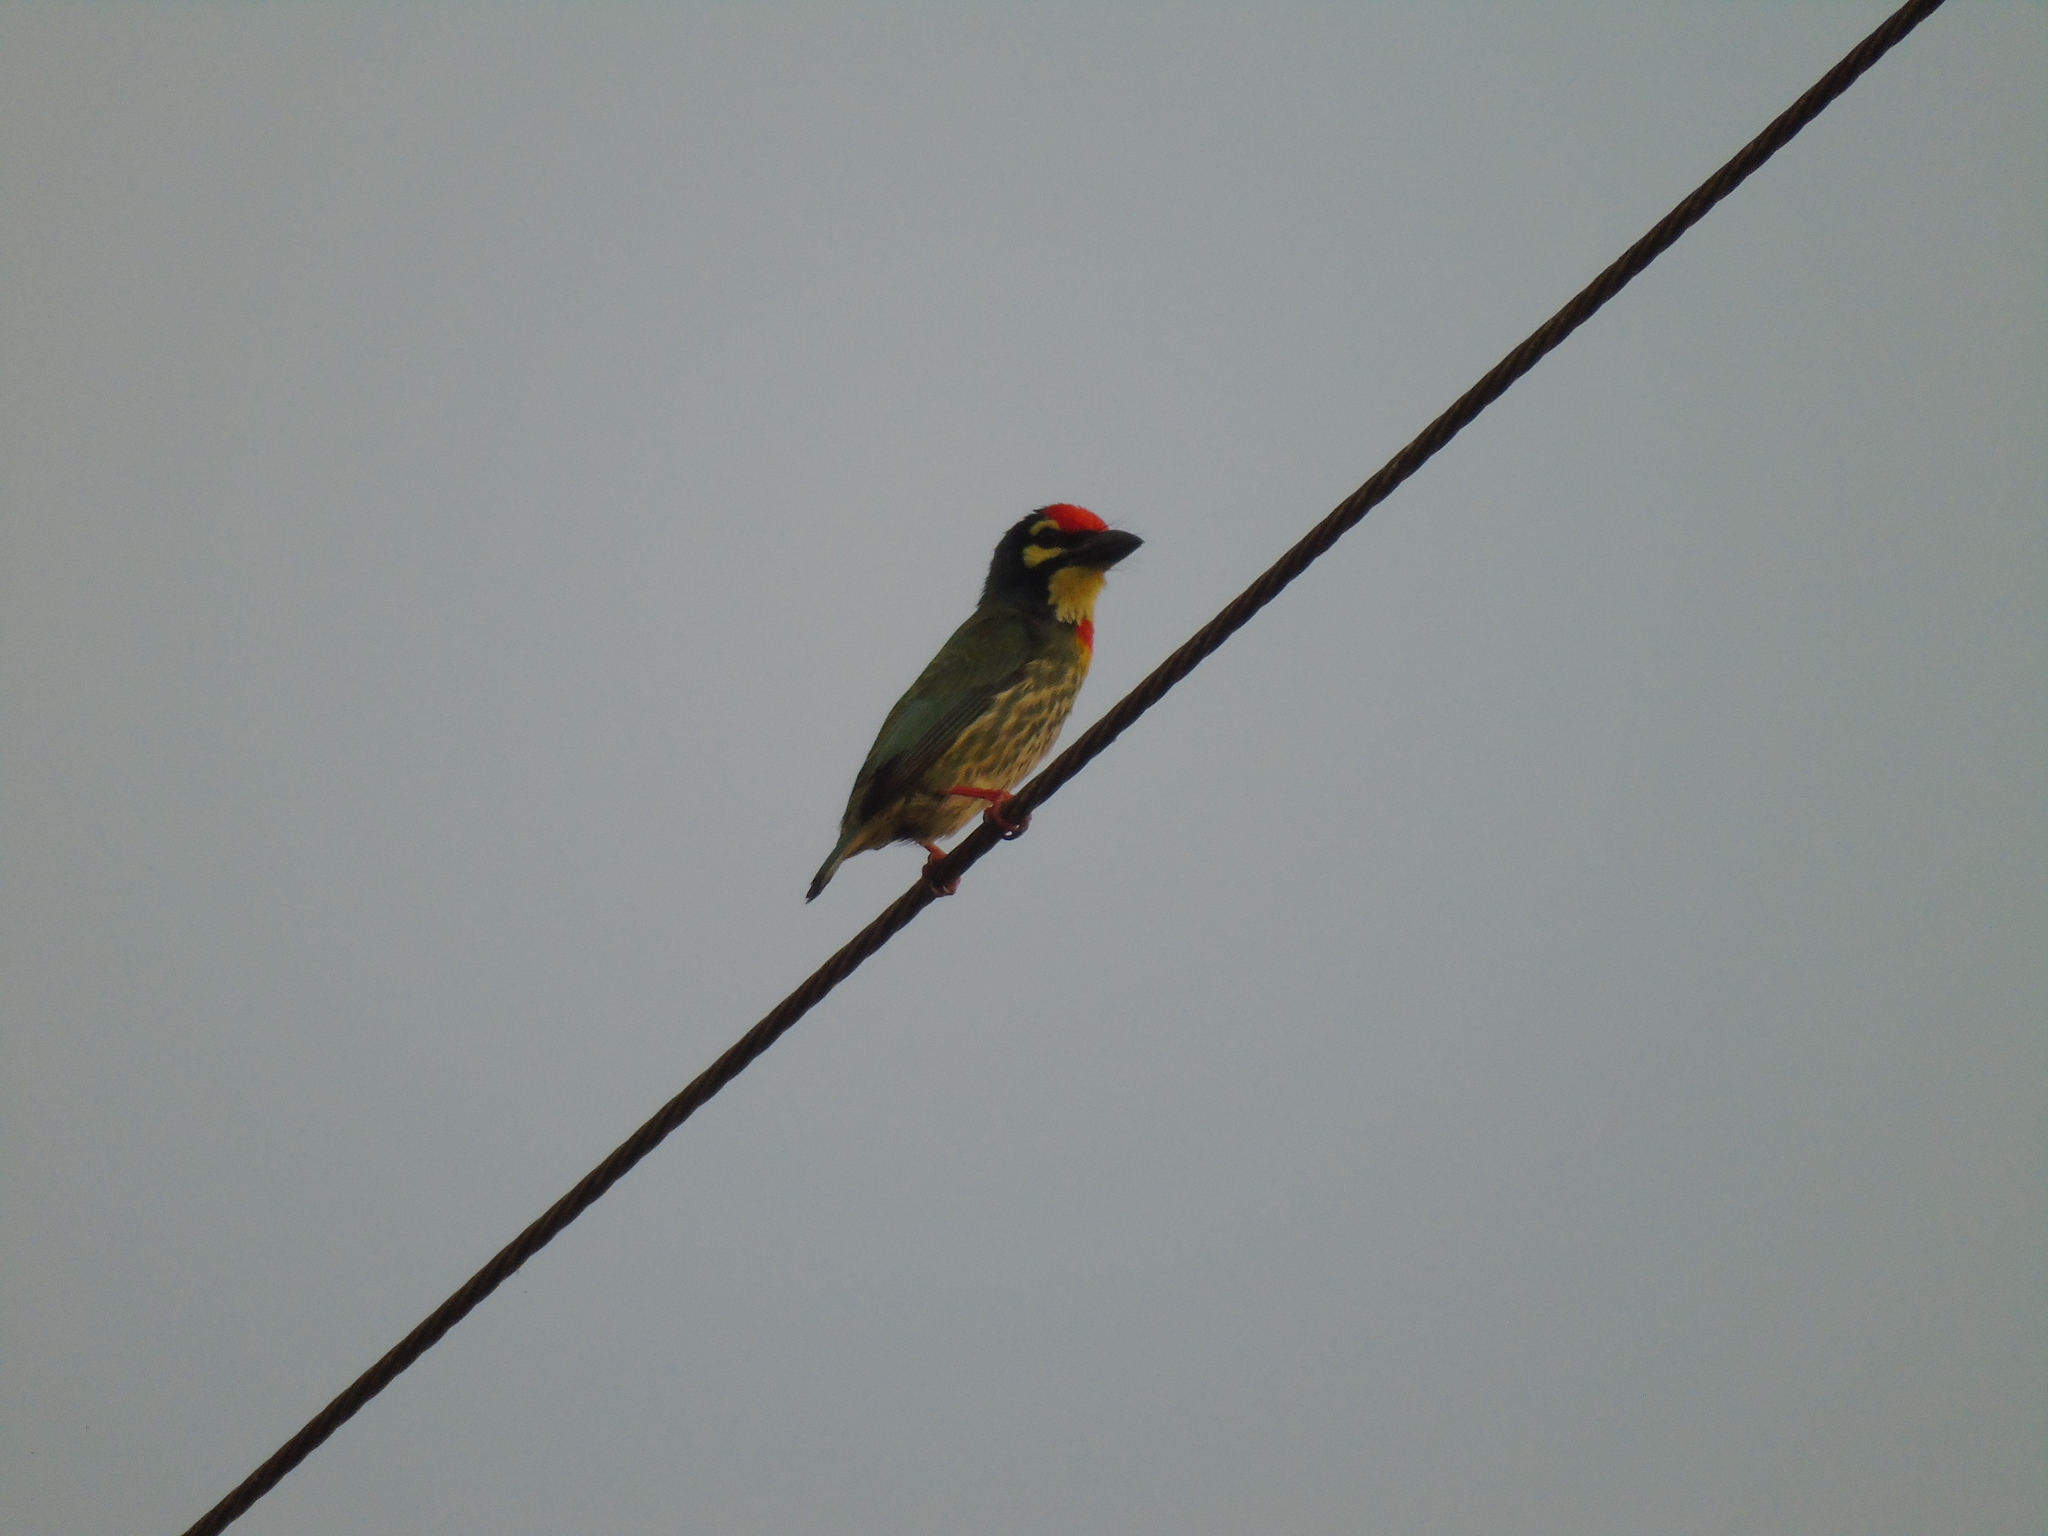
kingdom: Animalia
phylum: Chordata
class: Aves
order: Piciformes
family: Megalaimidae
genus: Psilopogon
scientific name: Psilopogon haemacephalus
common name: Coppersmith barbet
